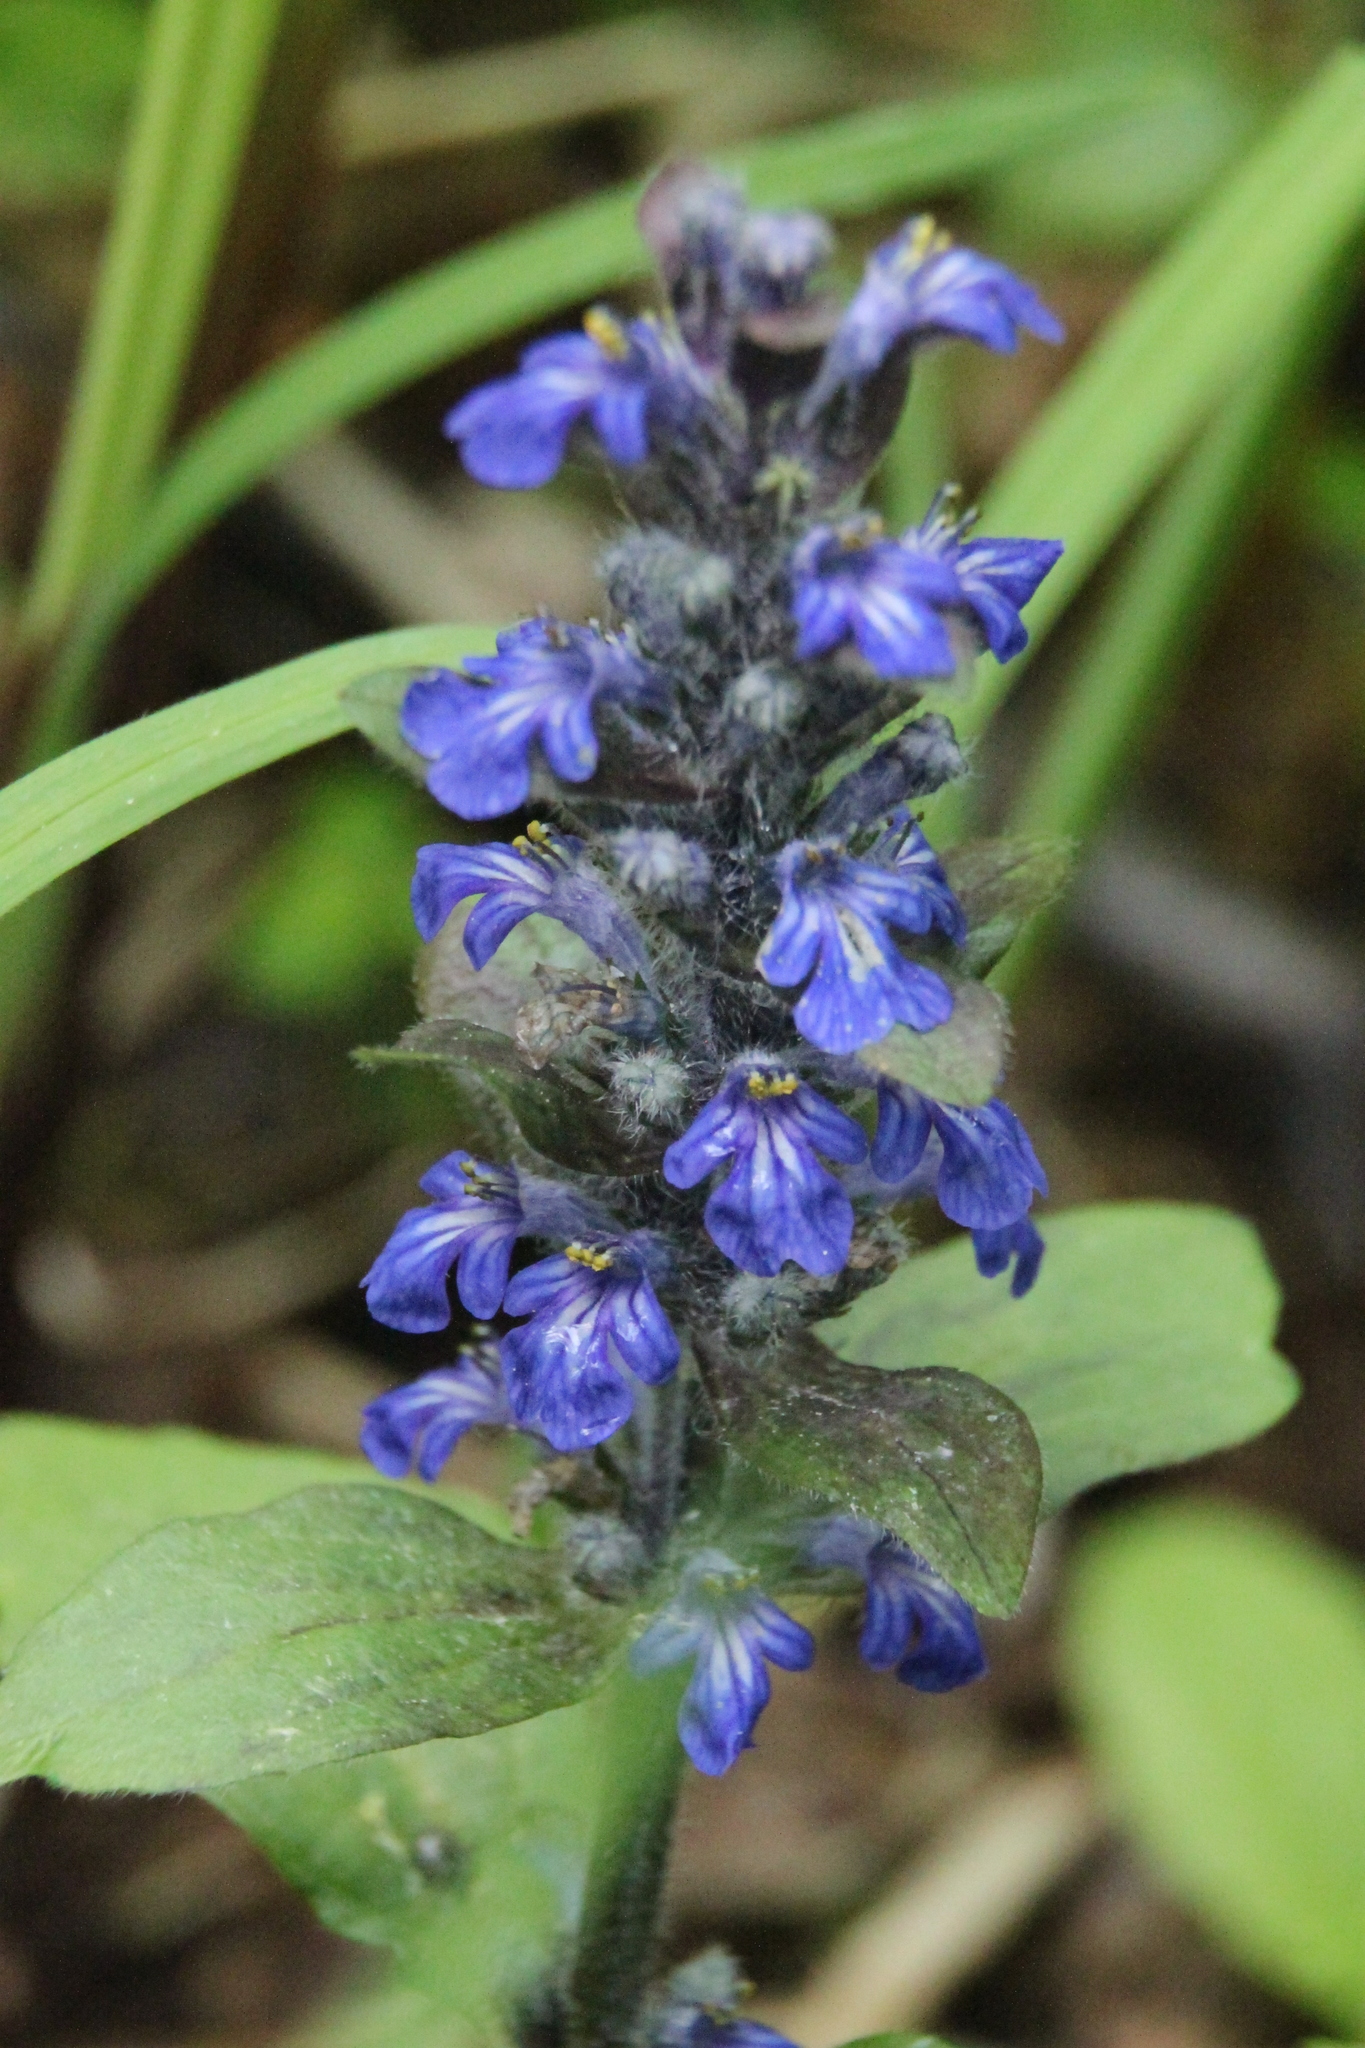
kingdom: Plantae
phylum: Tracheophyta
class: Magnoliopsida
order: Lamiales
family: Lamiaceae
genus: Ajuga
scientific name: Ajuga reptans
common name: Bugle
